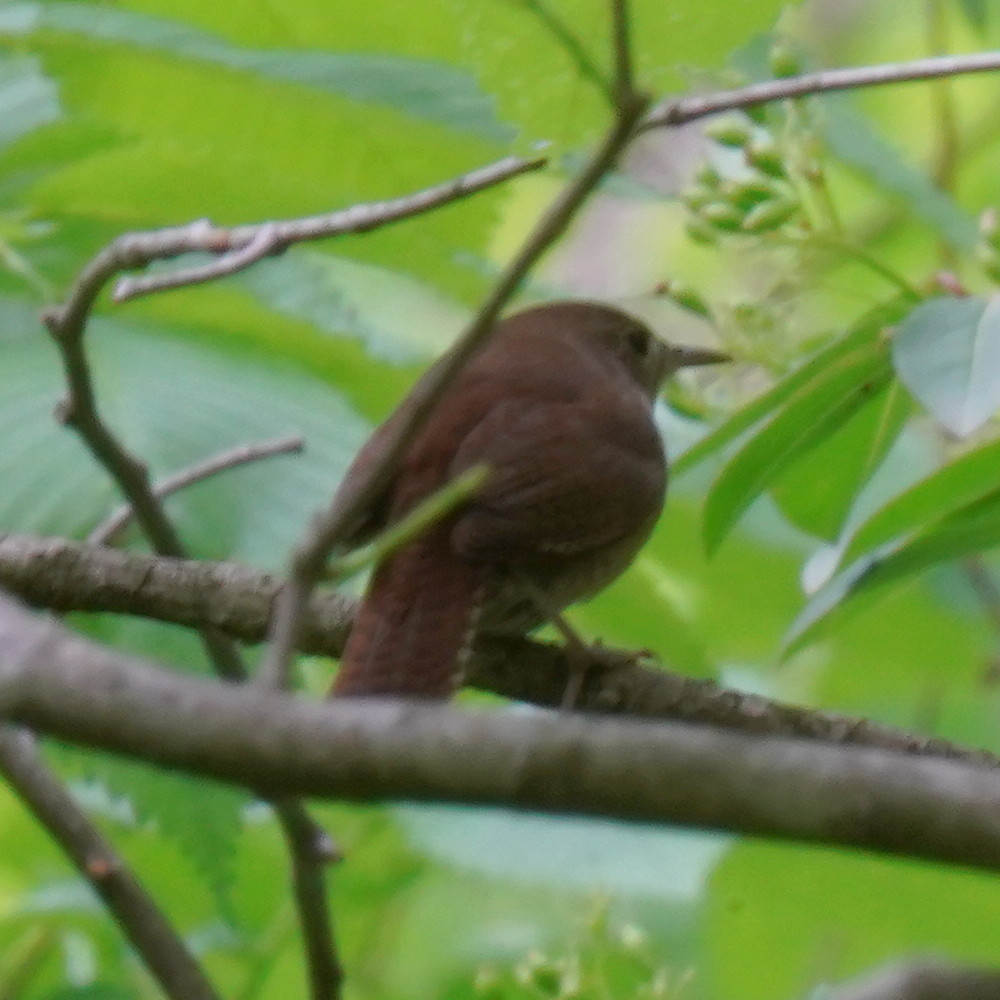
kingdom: Animalia
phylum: Chordata
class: Aves
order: Passeriformes
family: Troglodytidae
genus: Troglodytes
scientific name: Troglodytes aedon
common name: House wren
